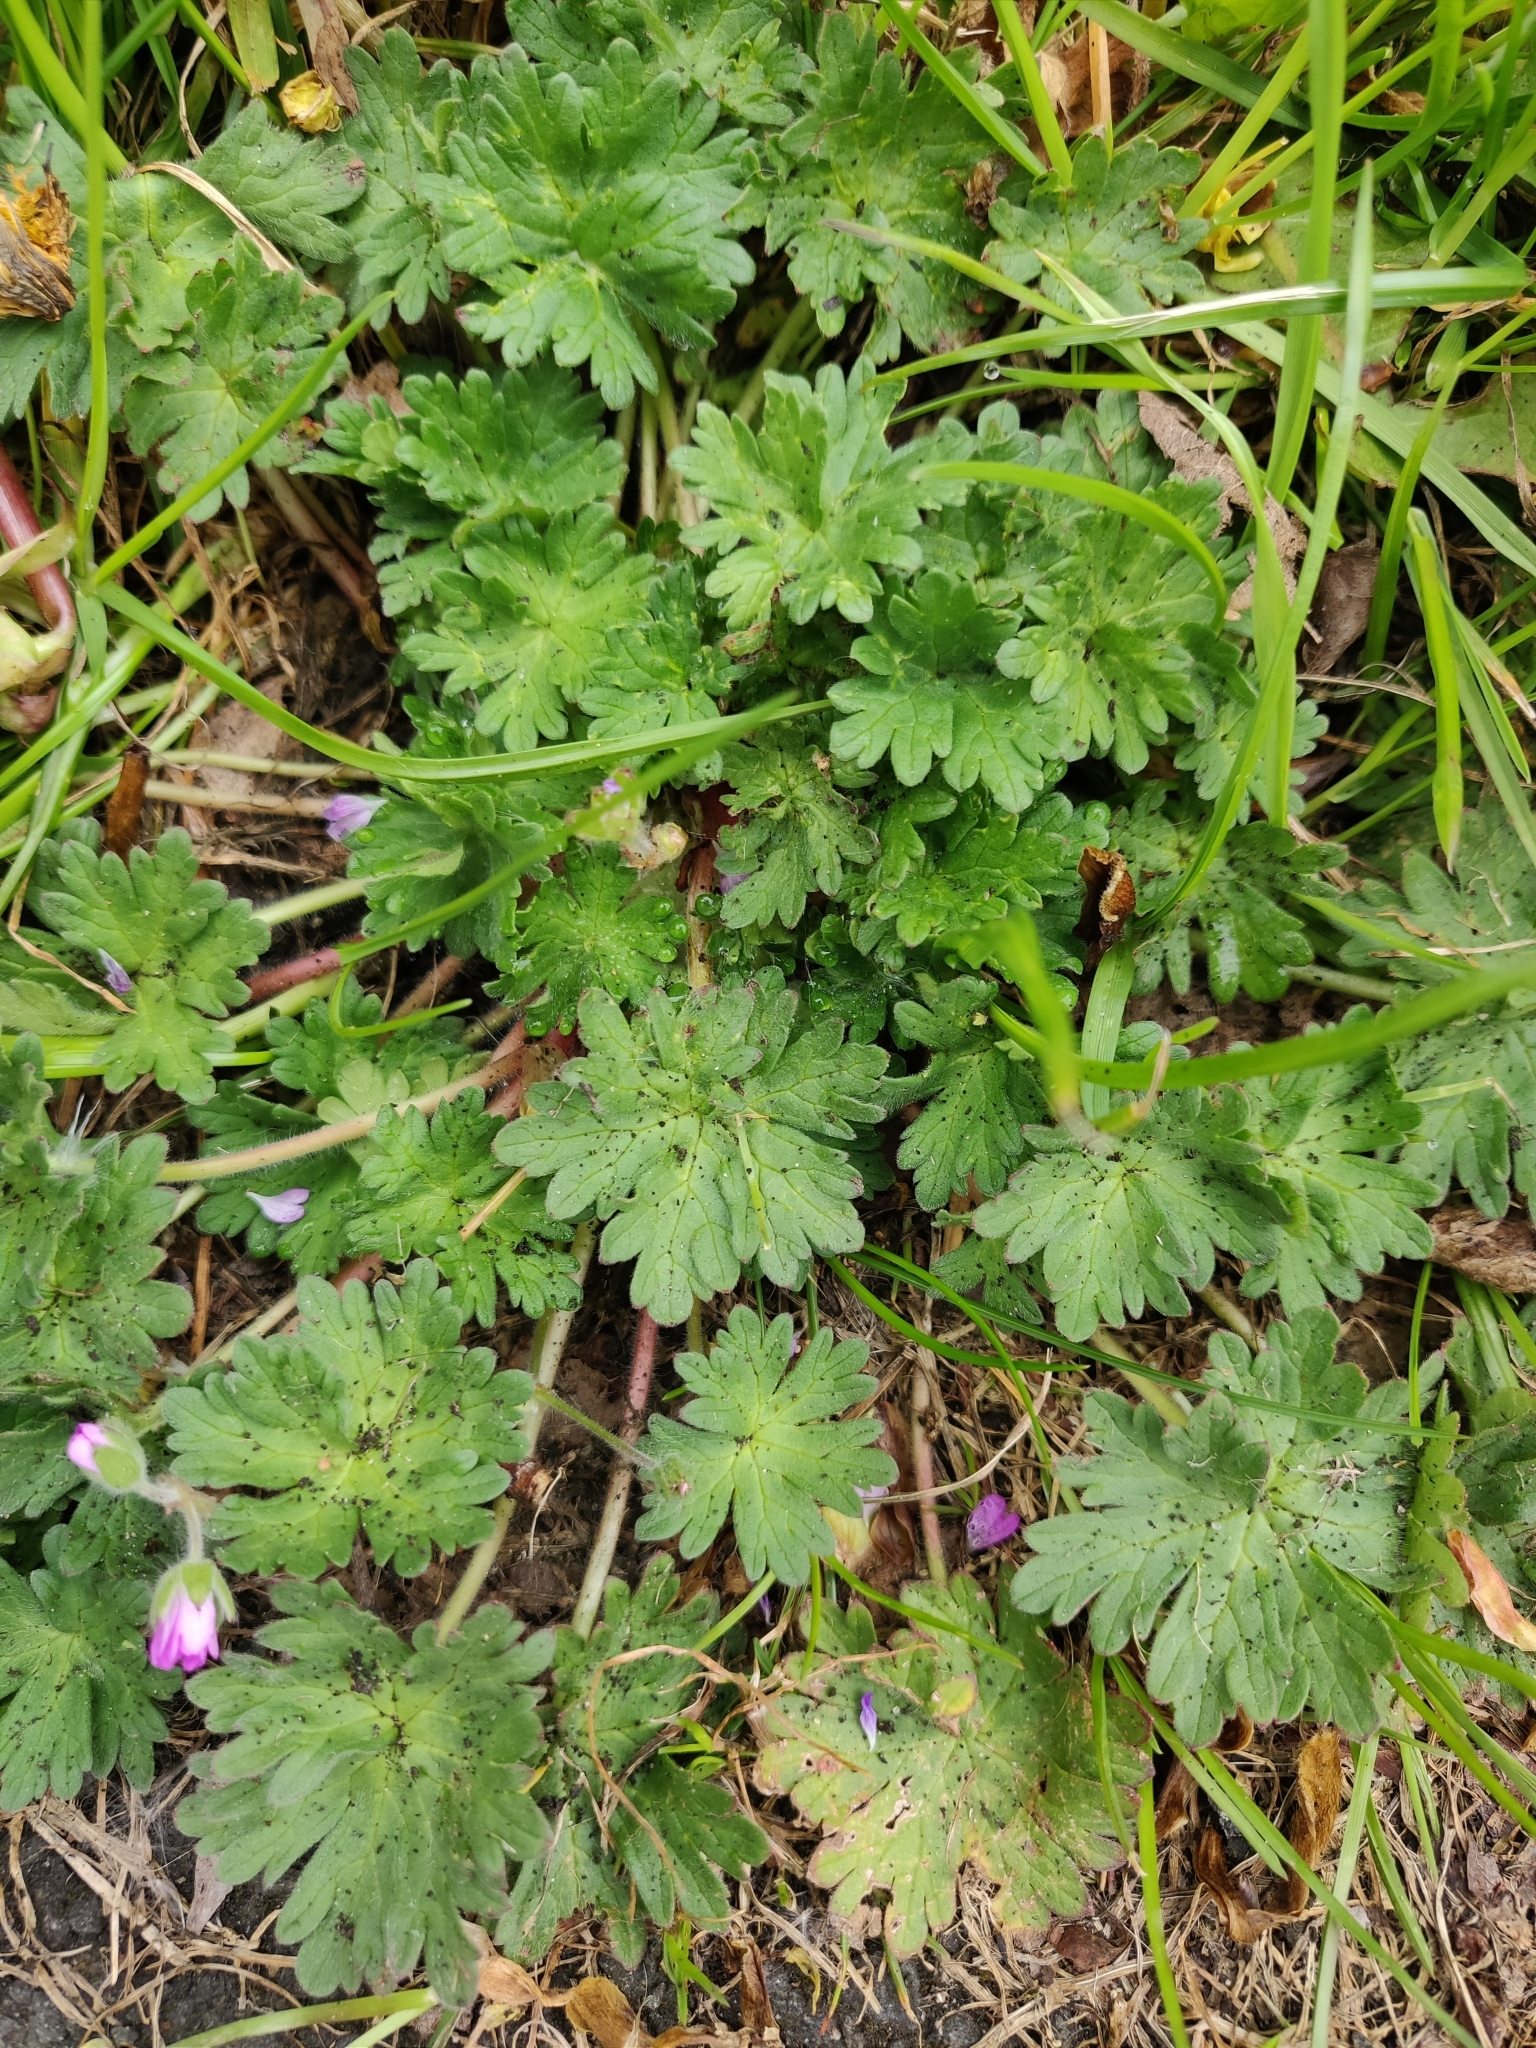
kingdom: Plantae
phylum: Tracheophyta
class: Magnoliopsida
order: Geraniales
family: Geraniaceae
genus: Geranium
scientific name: Geranium molle
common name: Dove's-foot crane's-bill
